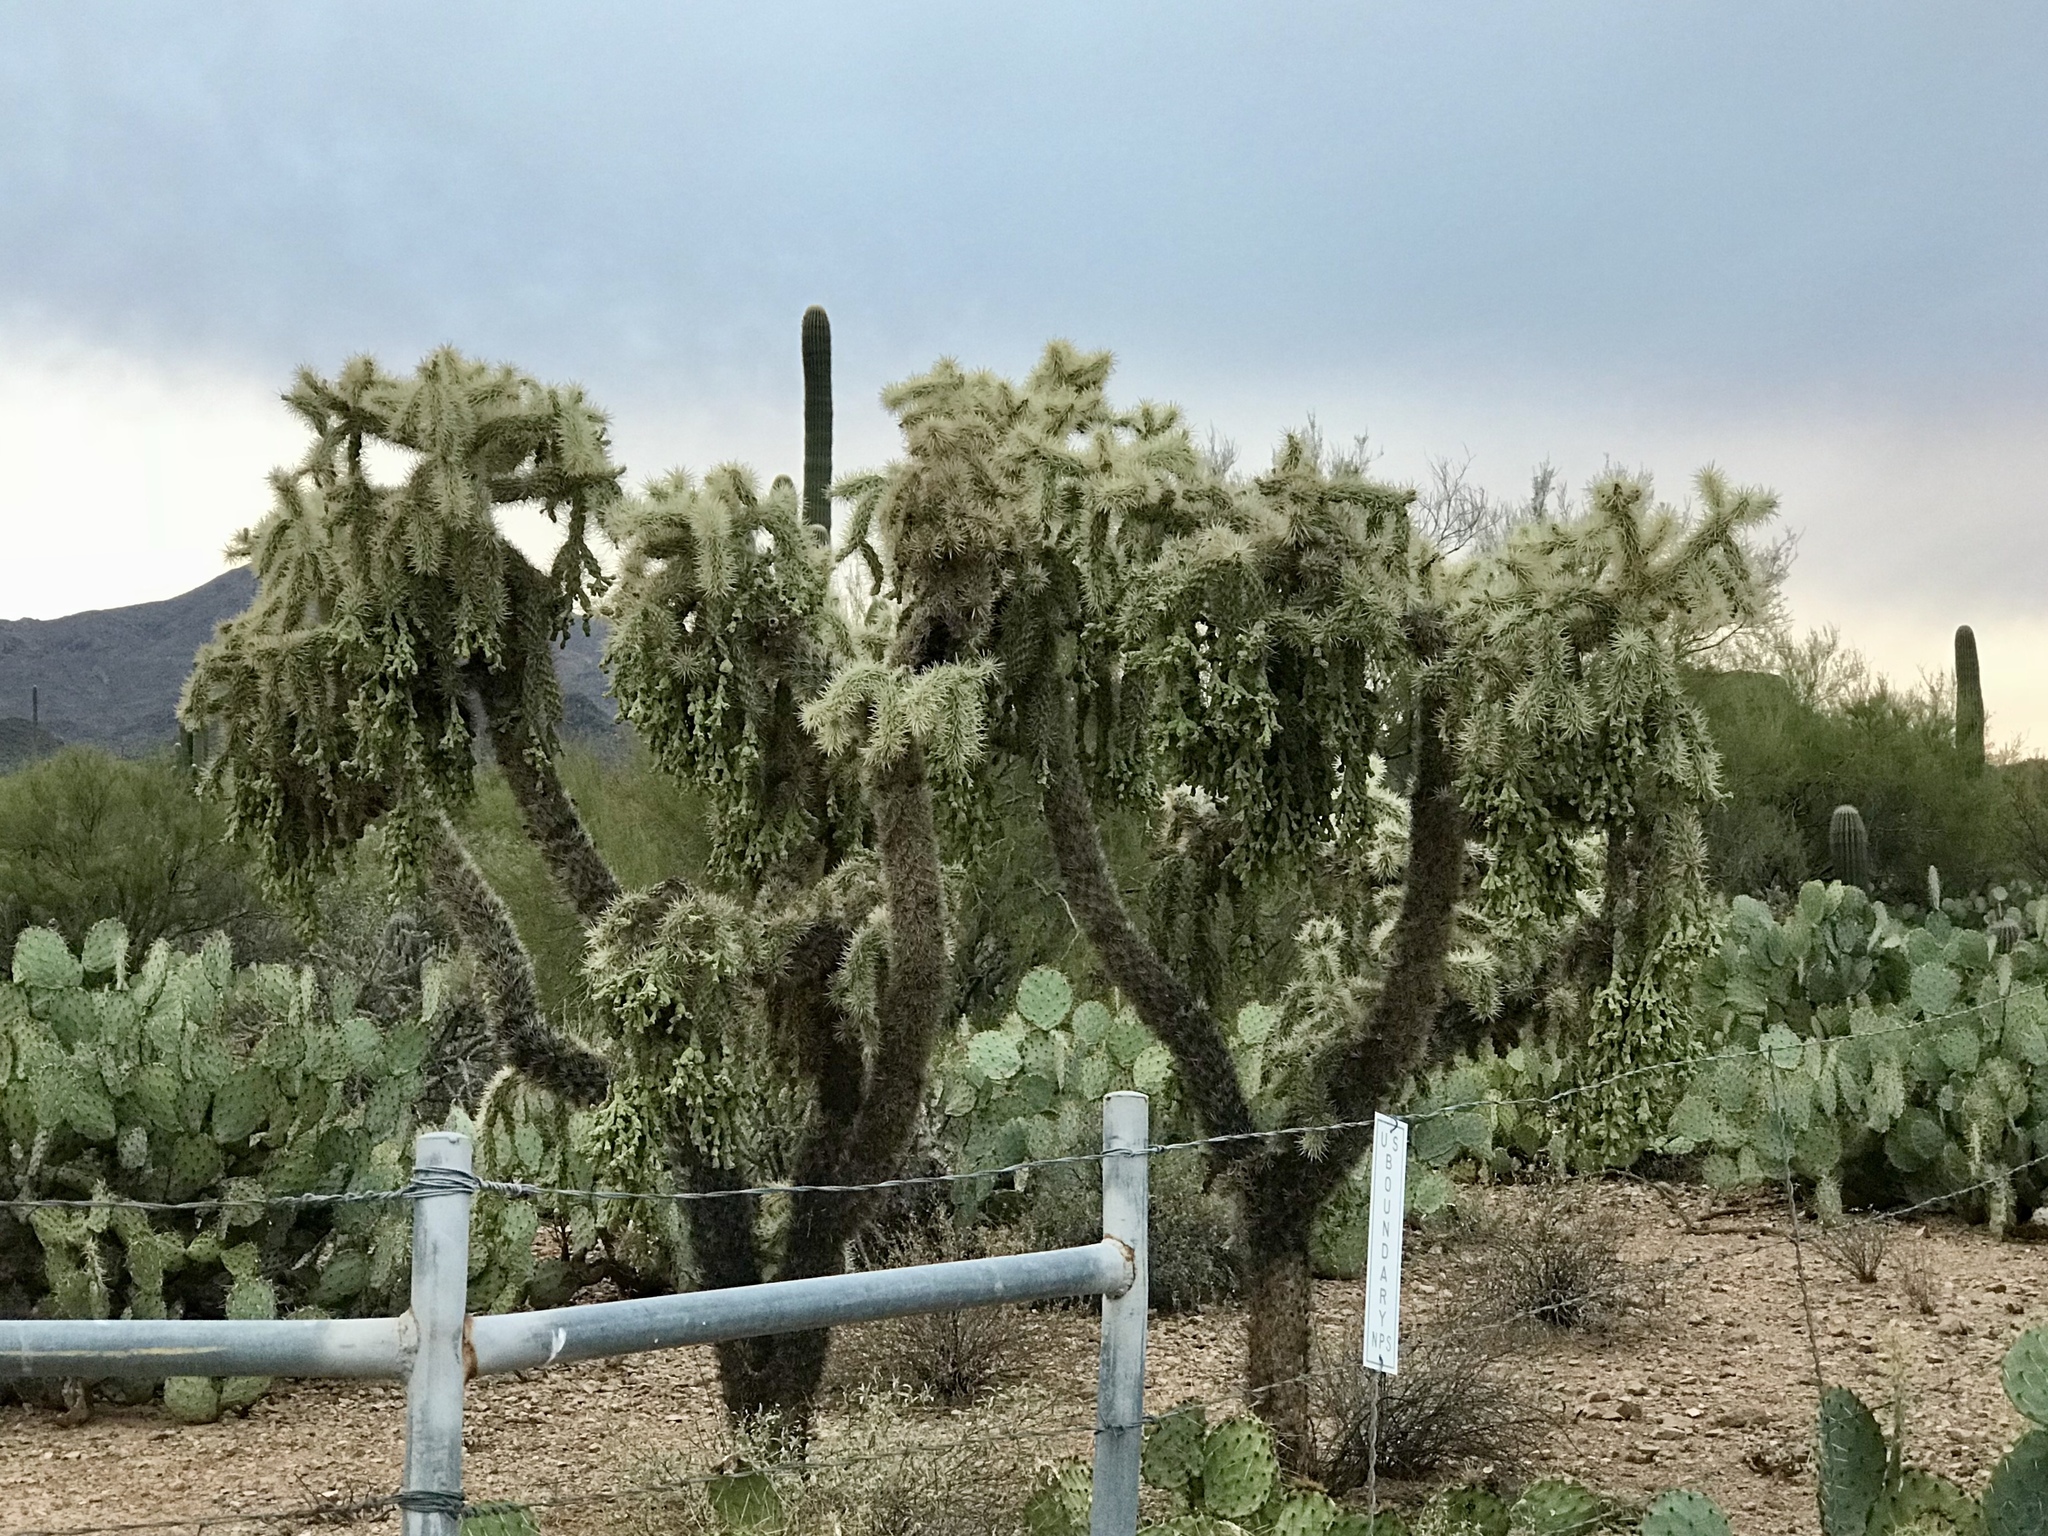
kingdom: Plantae
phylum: Tracheophyta
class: Magnoliopsida
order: Caryophyllales
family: Cactaceae
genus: Cylindropuntia
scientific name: Cylindropuntia fulgida
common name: Jumping cholla
